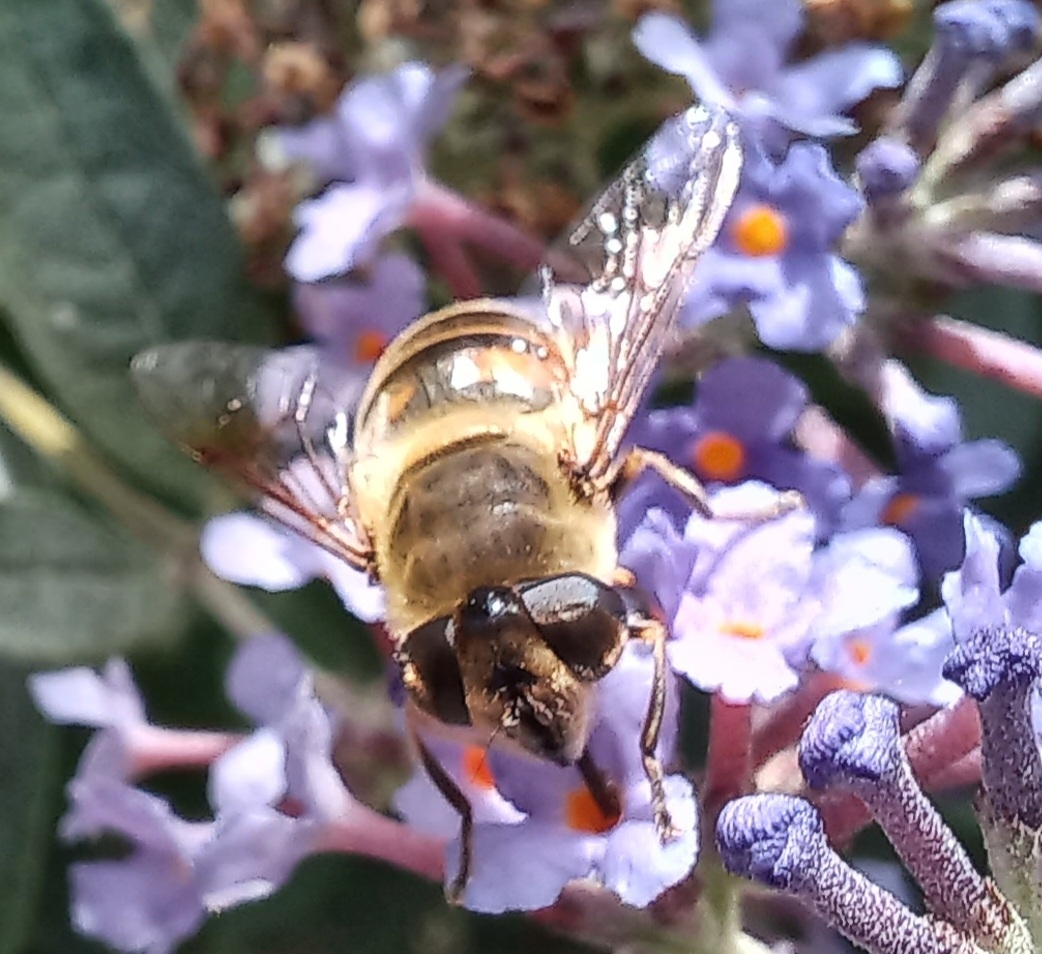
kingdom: Animalia
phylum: Arthropoda
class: Insecta
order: Diptera
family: Syrphidae
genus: Eristalis
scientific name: Eristalis tenax
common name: Drone fly
